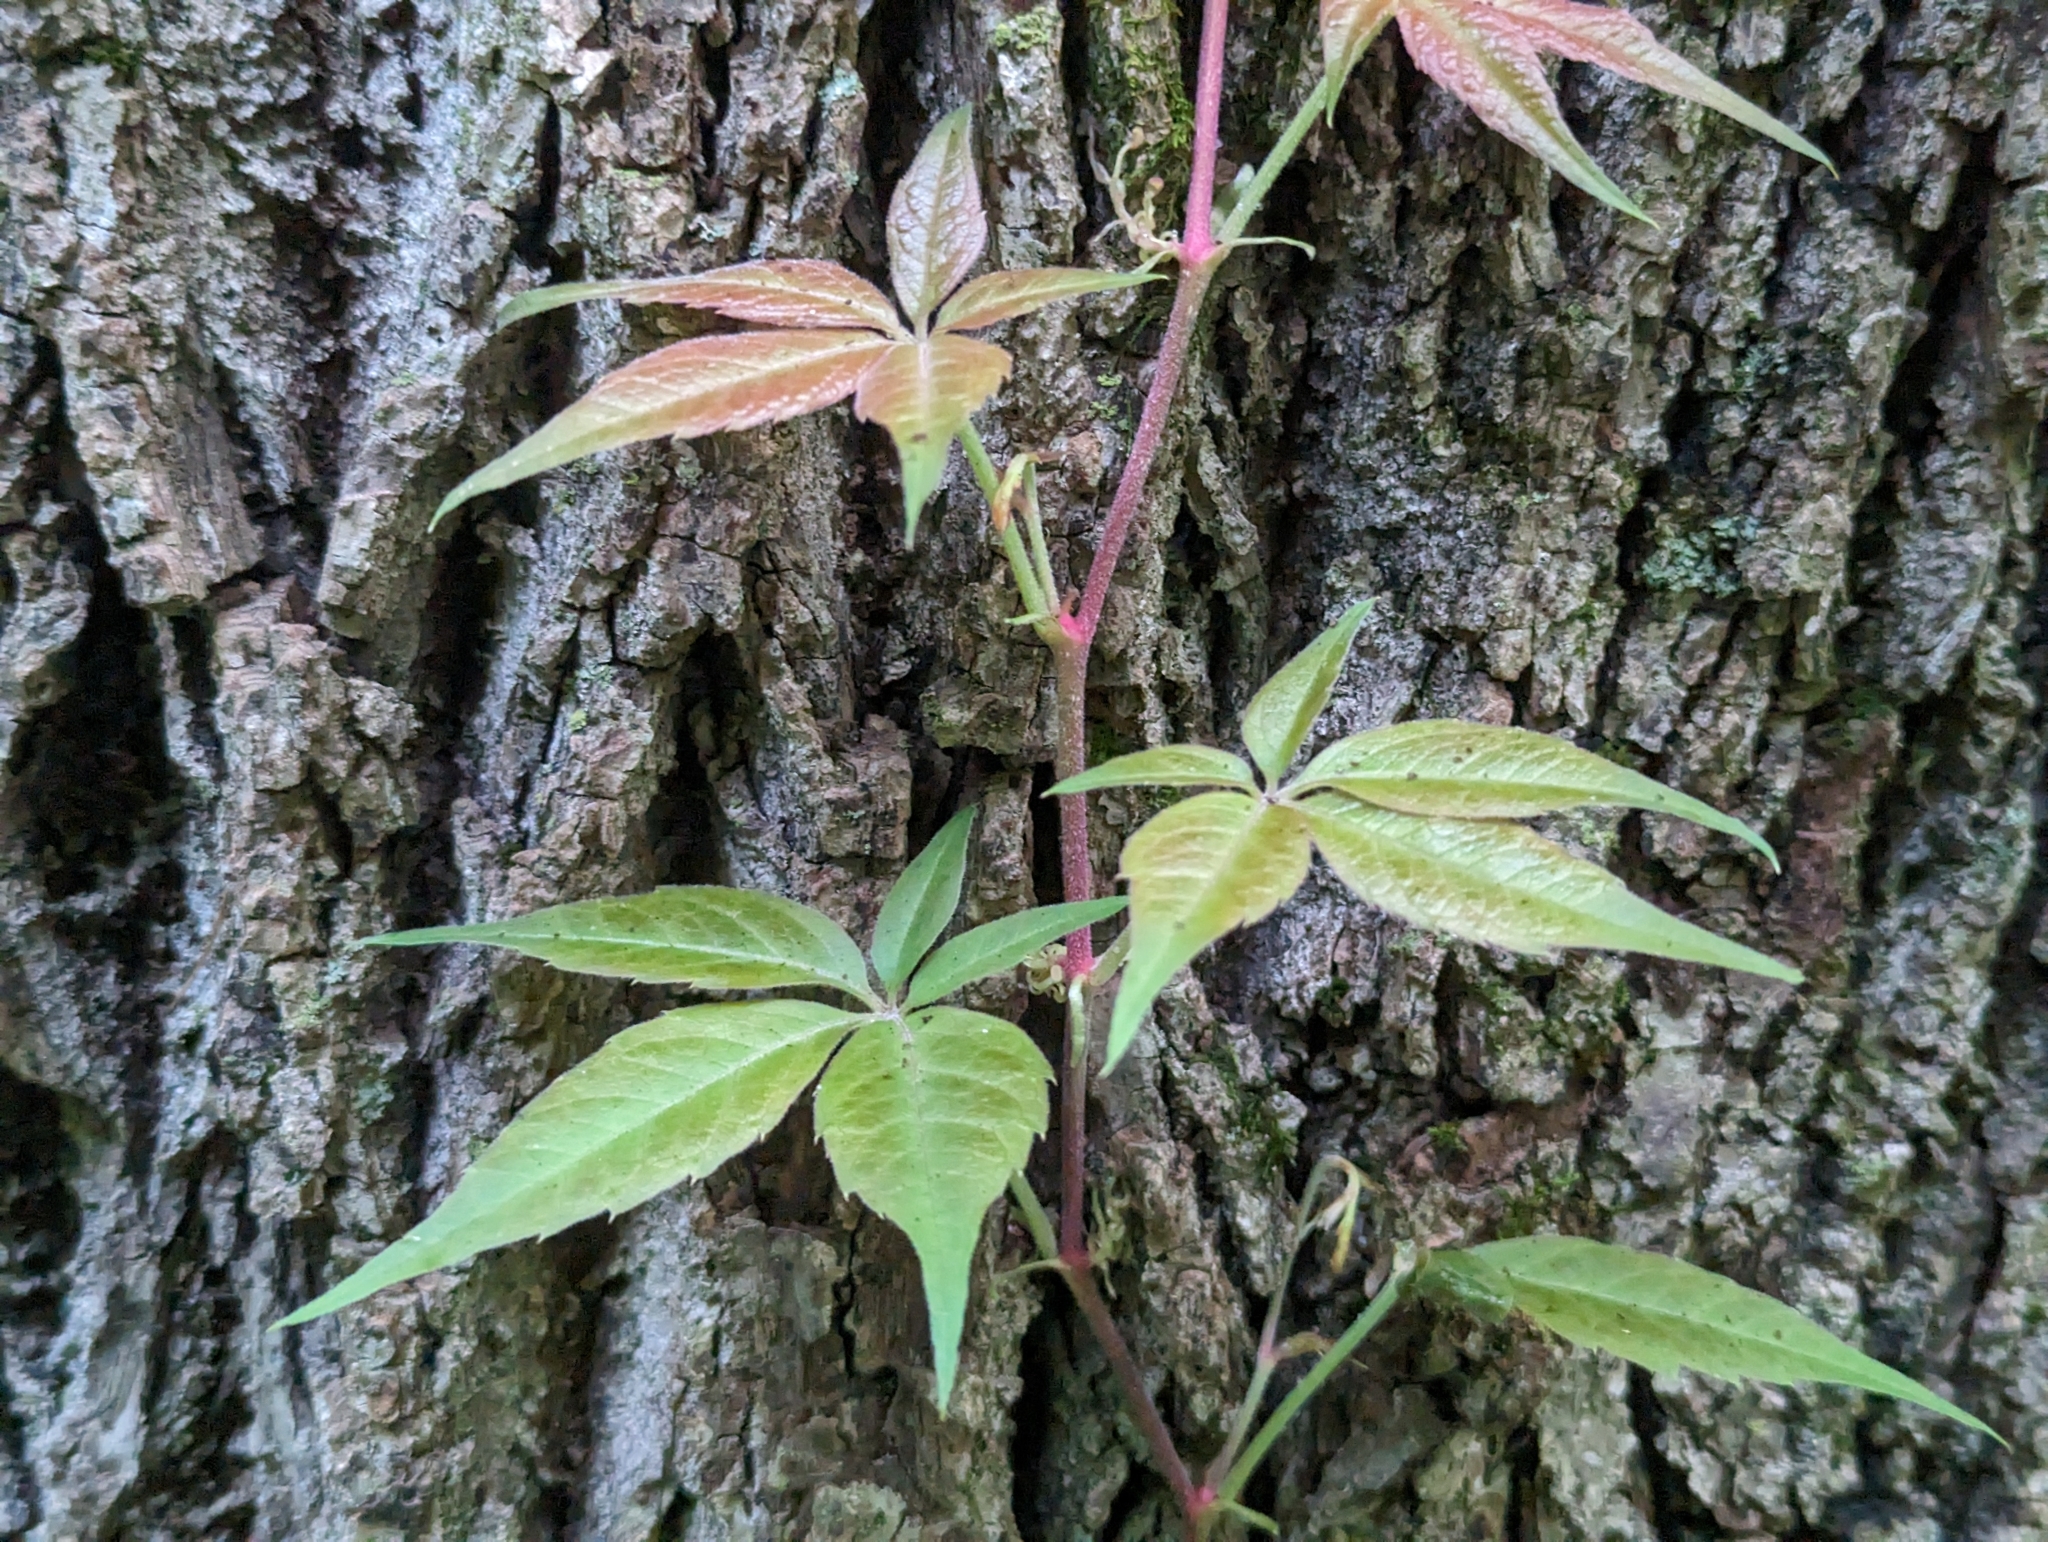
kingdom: Plantae
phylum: Tracheophyta
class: Magnoliopsida
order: Vitales
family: Vitaceae
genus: Parthenocissus
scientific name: Parthenocissus quinquefolia
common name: Virginia-creeper
